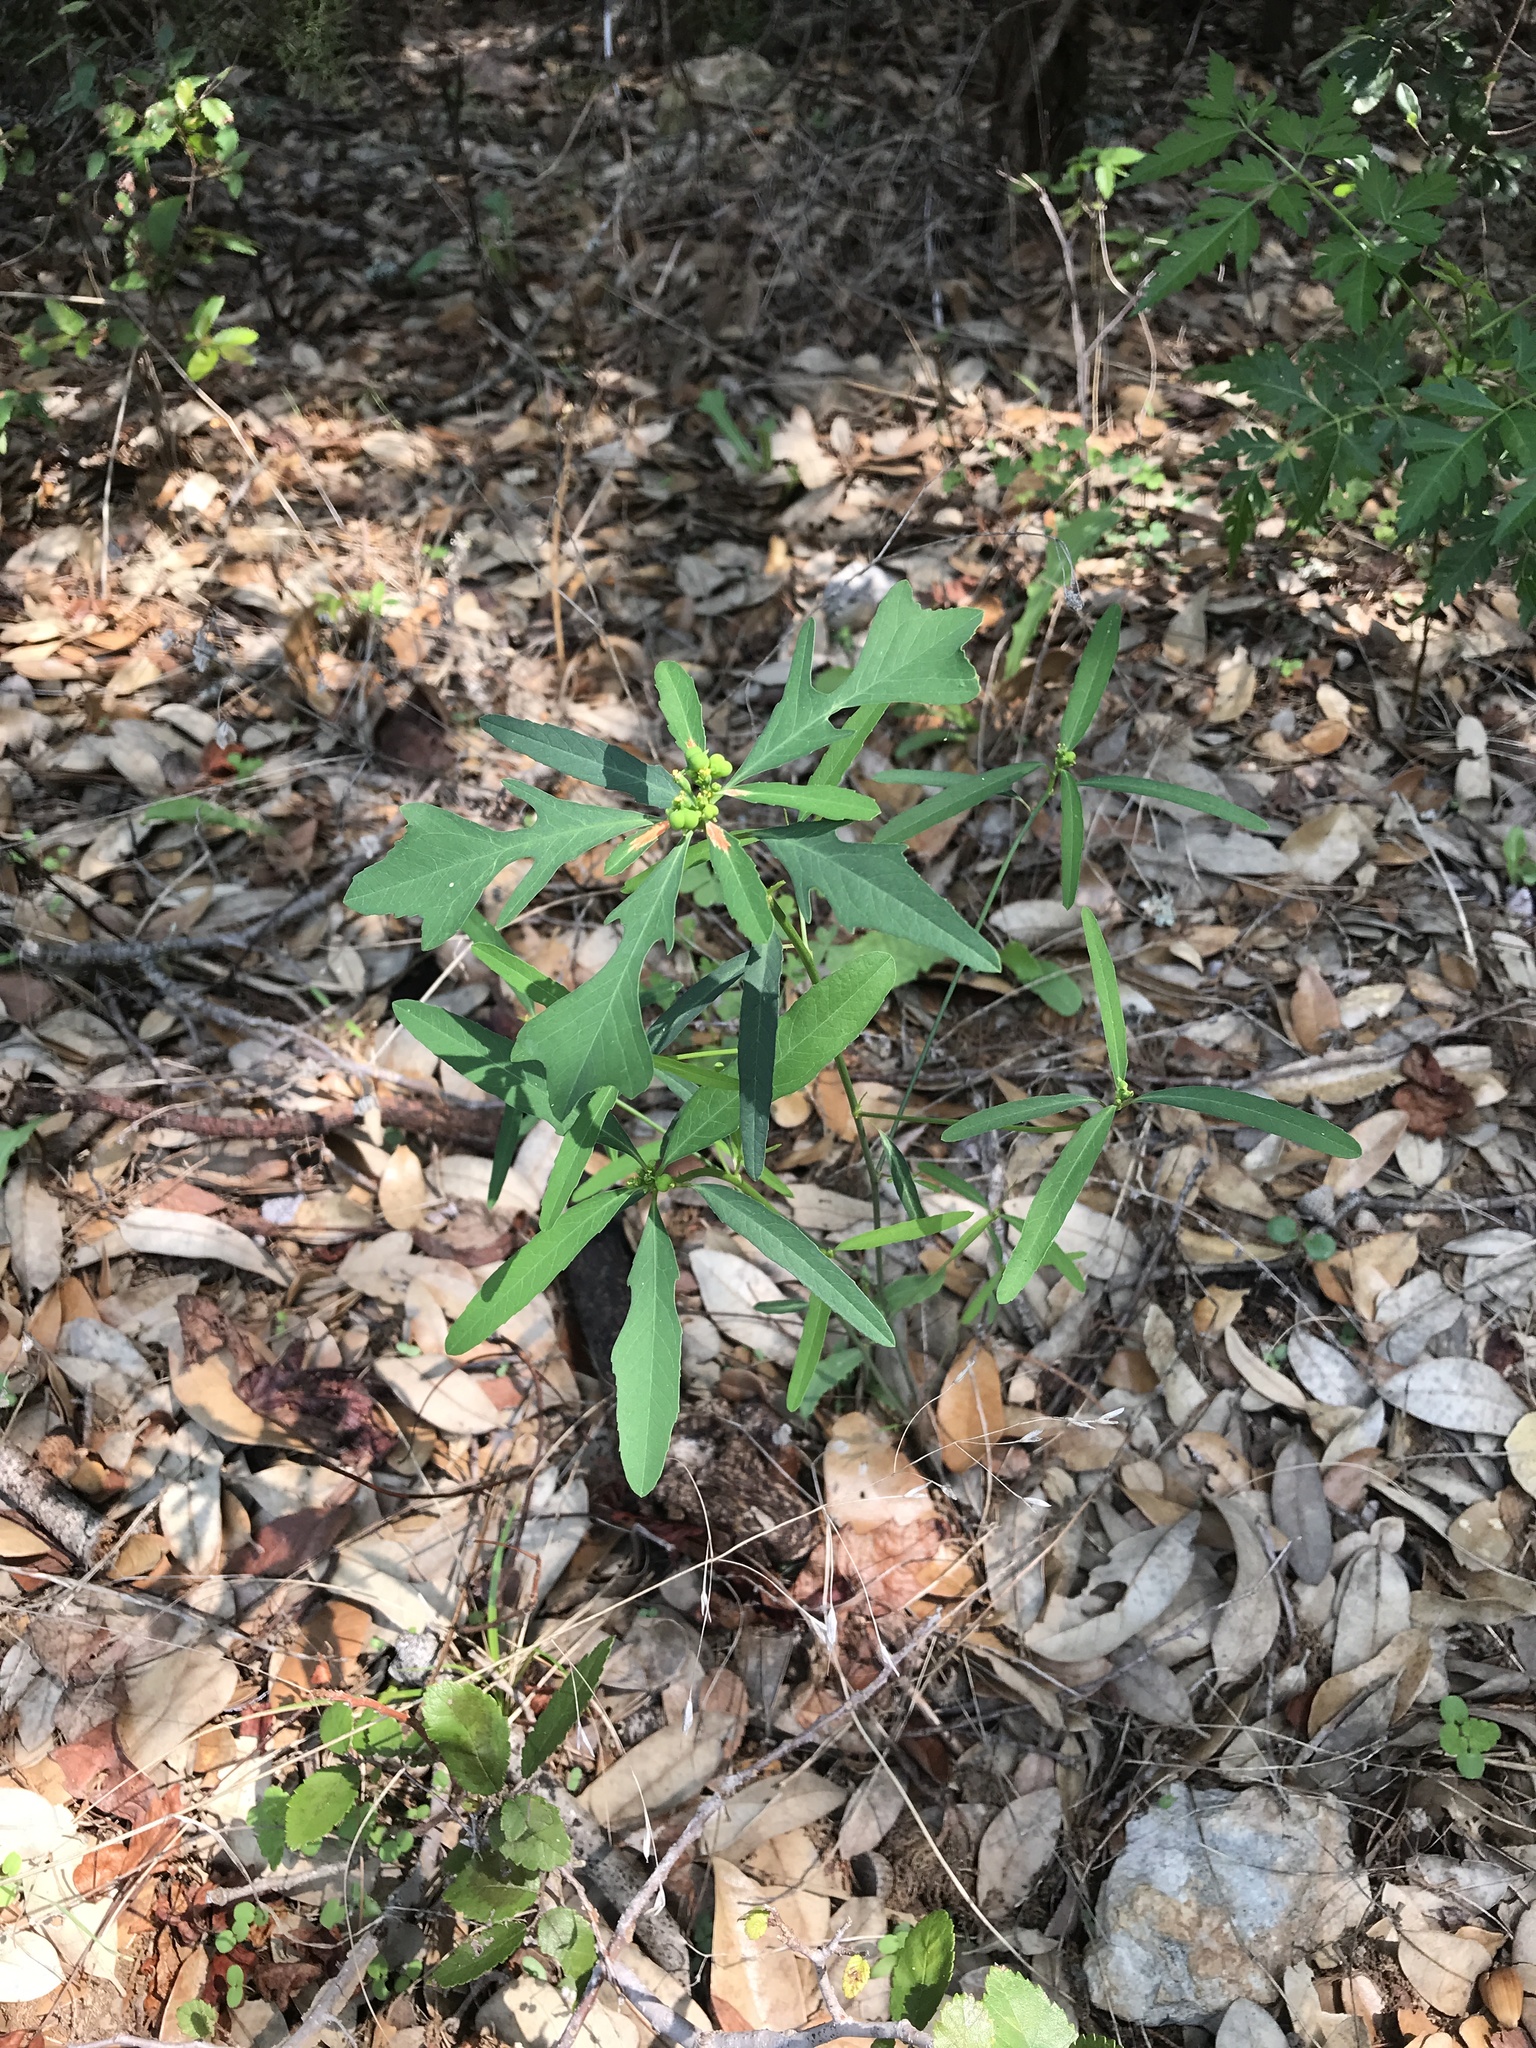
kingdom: Plantae
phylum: Tracheophyta
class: Magnoliopsida
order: Malpighiales
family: Euphorbiaceae
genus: Euphorbia
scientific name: Euphorbia heterophylla
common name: Mexican fireplant
